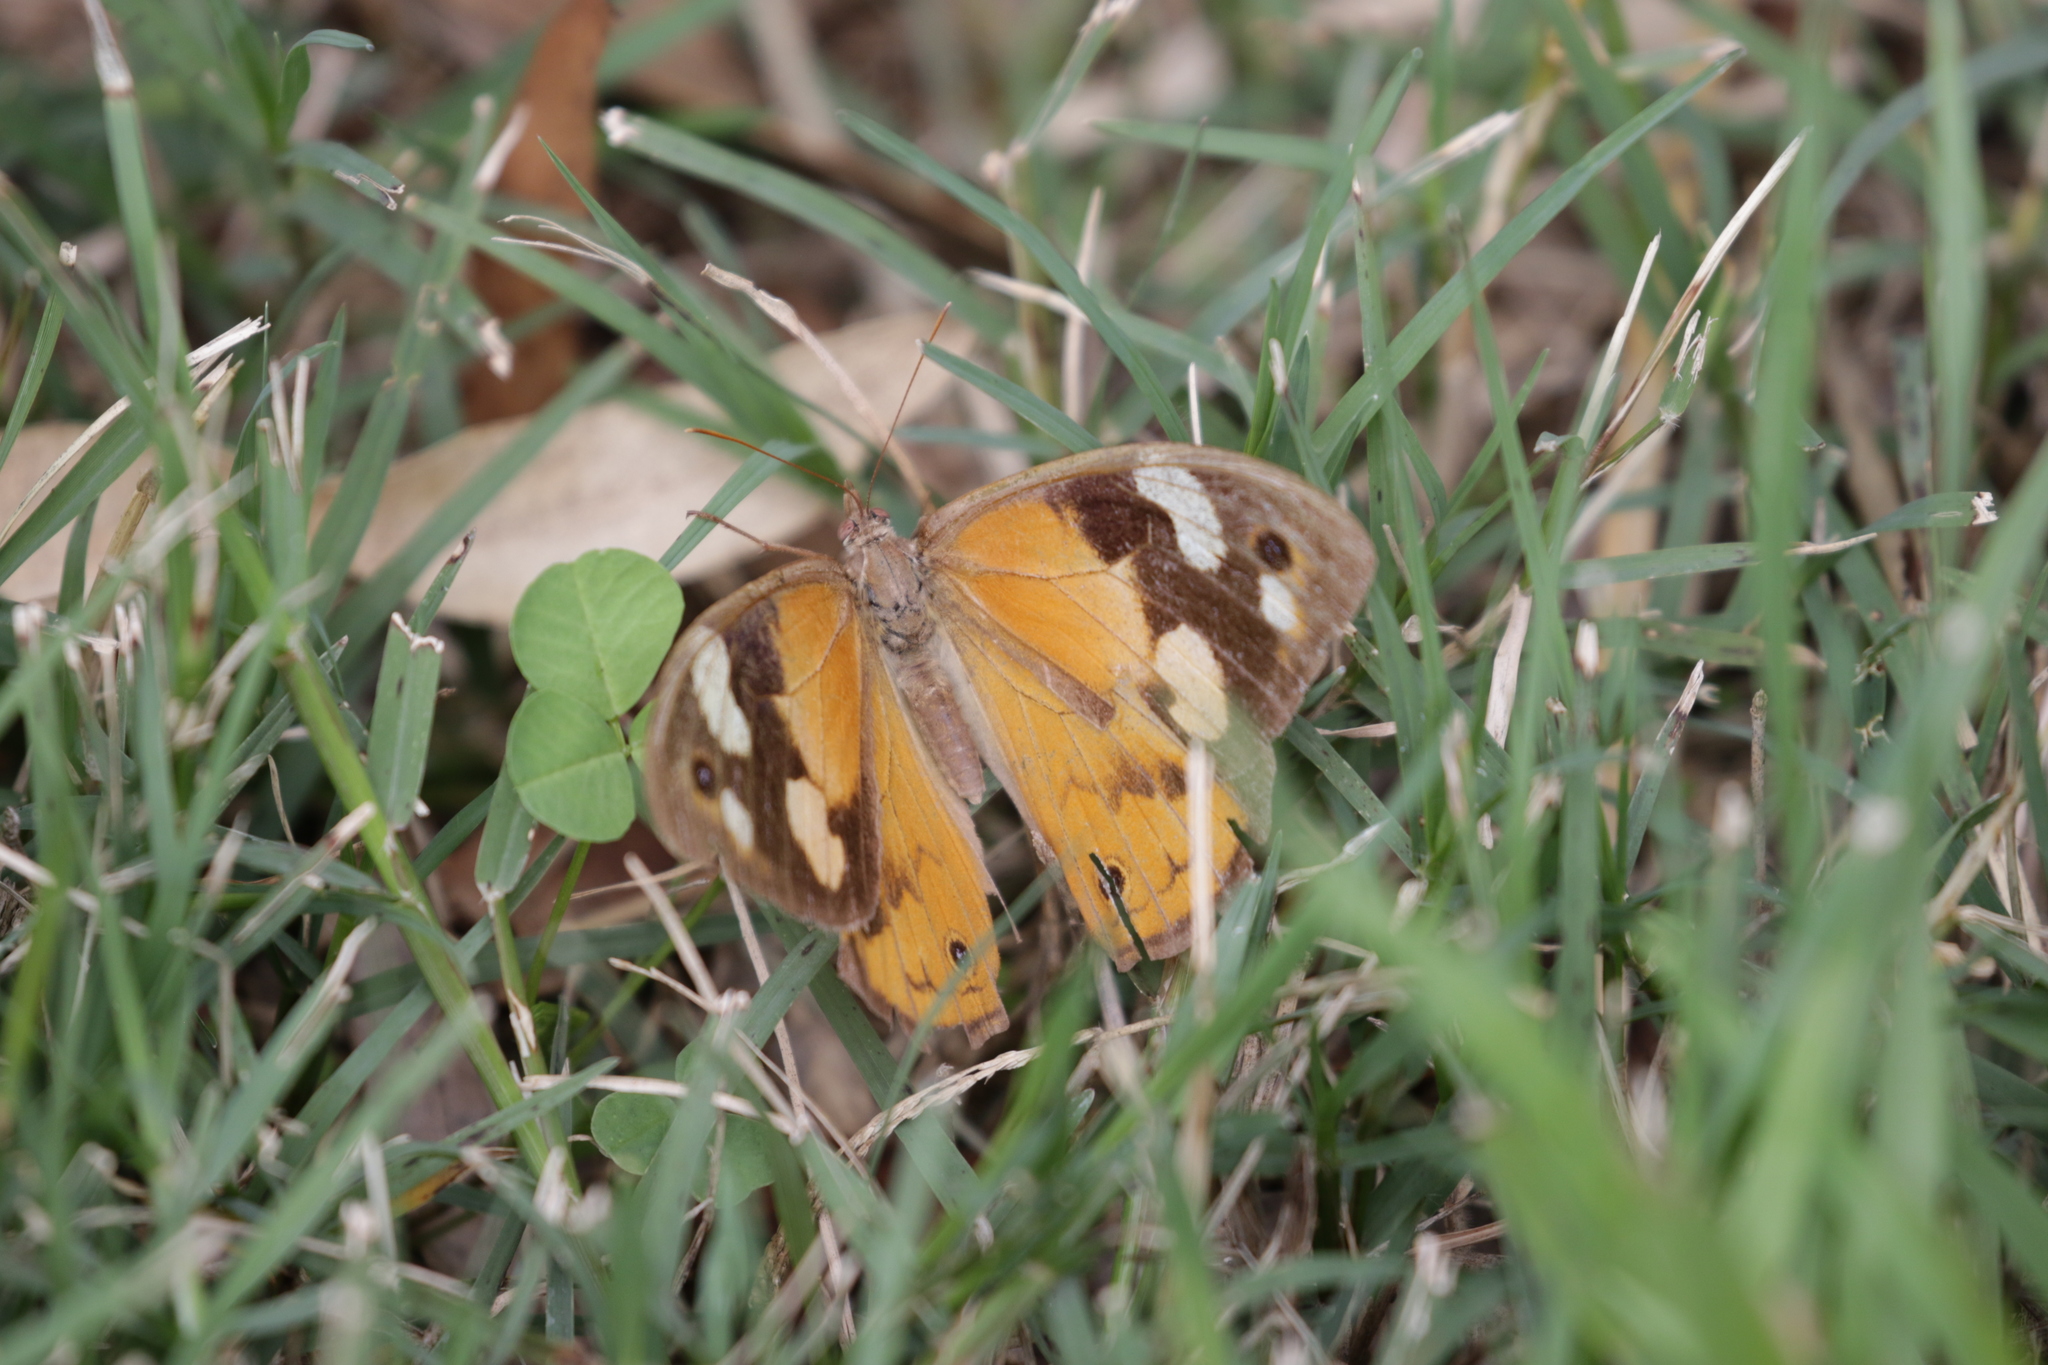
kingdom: Animalia
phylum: Arthropoda
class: Insecta
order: Lepidoptera
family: Nymphalidae
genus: Heteronympha
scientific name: Heteronympha merope
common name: Common brown
